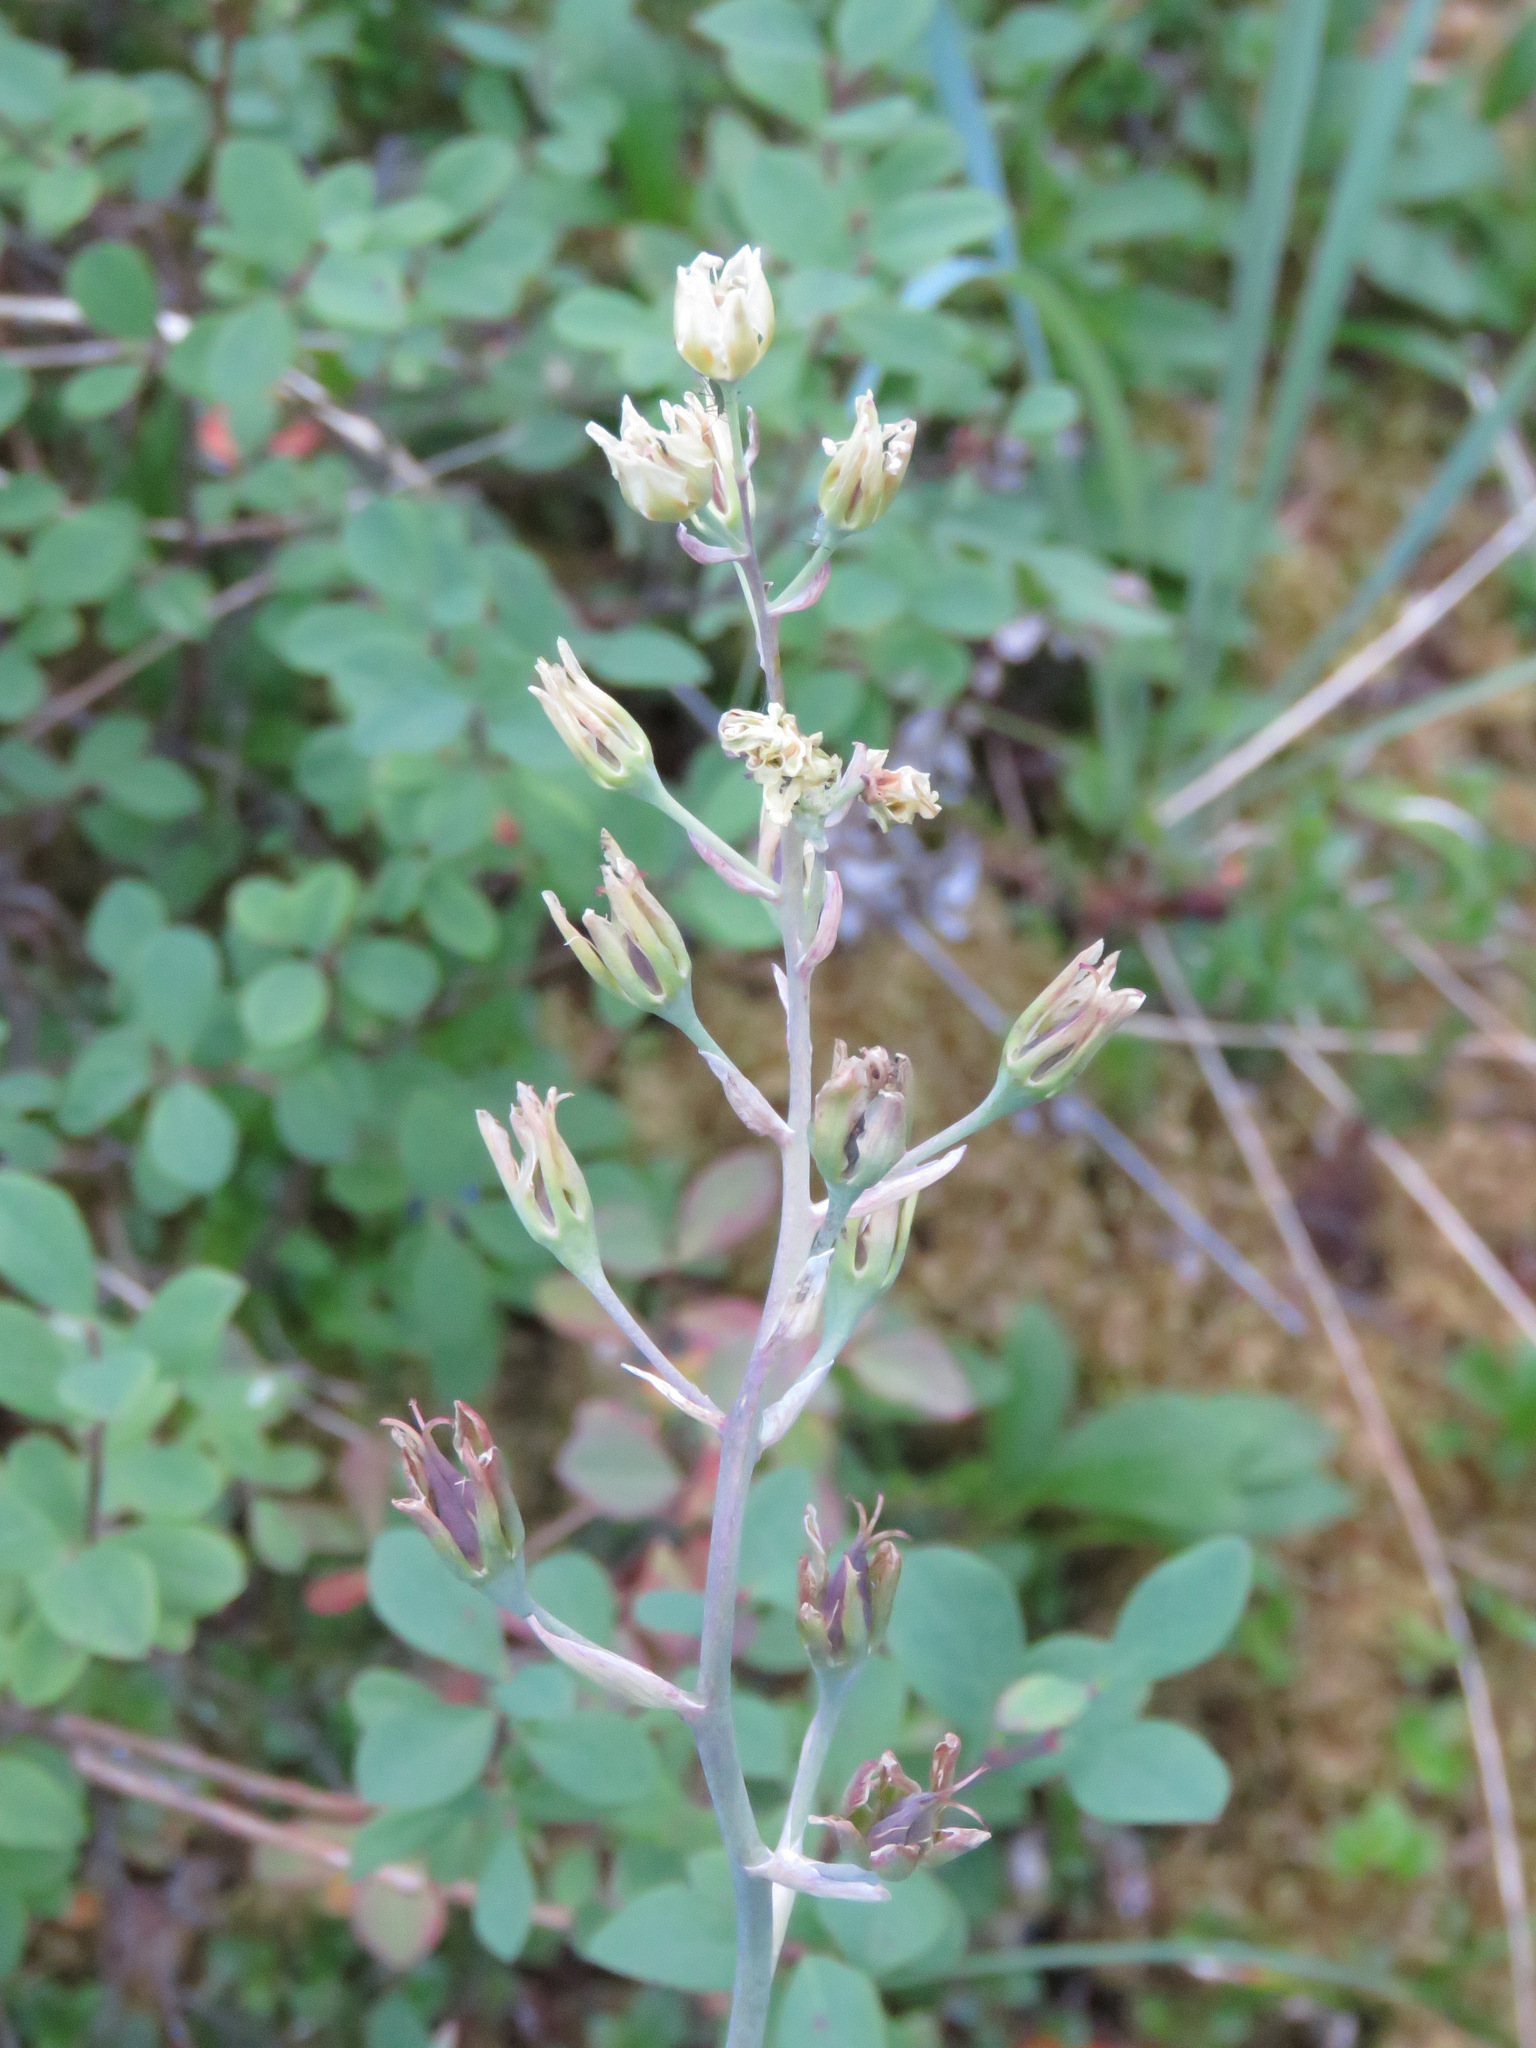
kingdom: Plantae
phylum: Tracheophyta
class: Liliopsida
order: Liliales
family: Melanthiaceae
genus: Anticlea
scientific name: Anticlea elegans
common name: Mountain death camas
